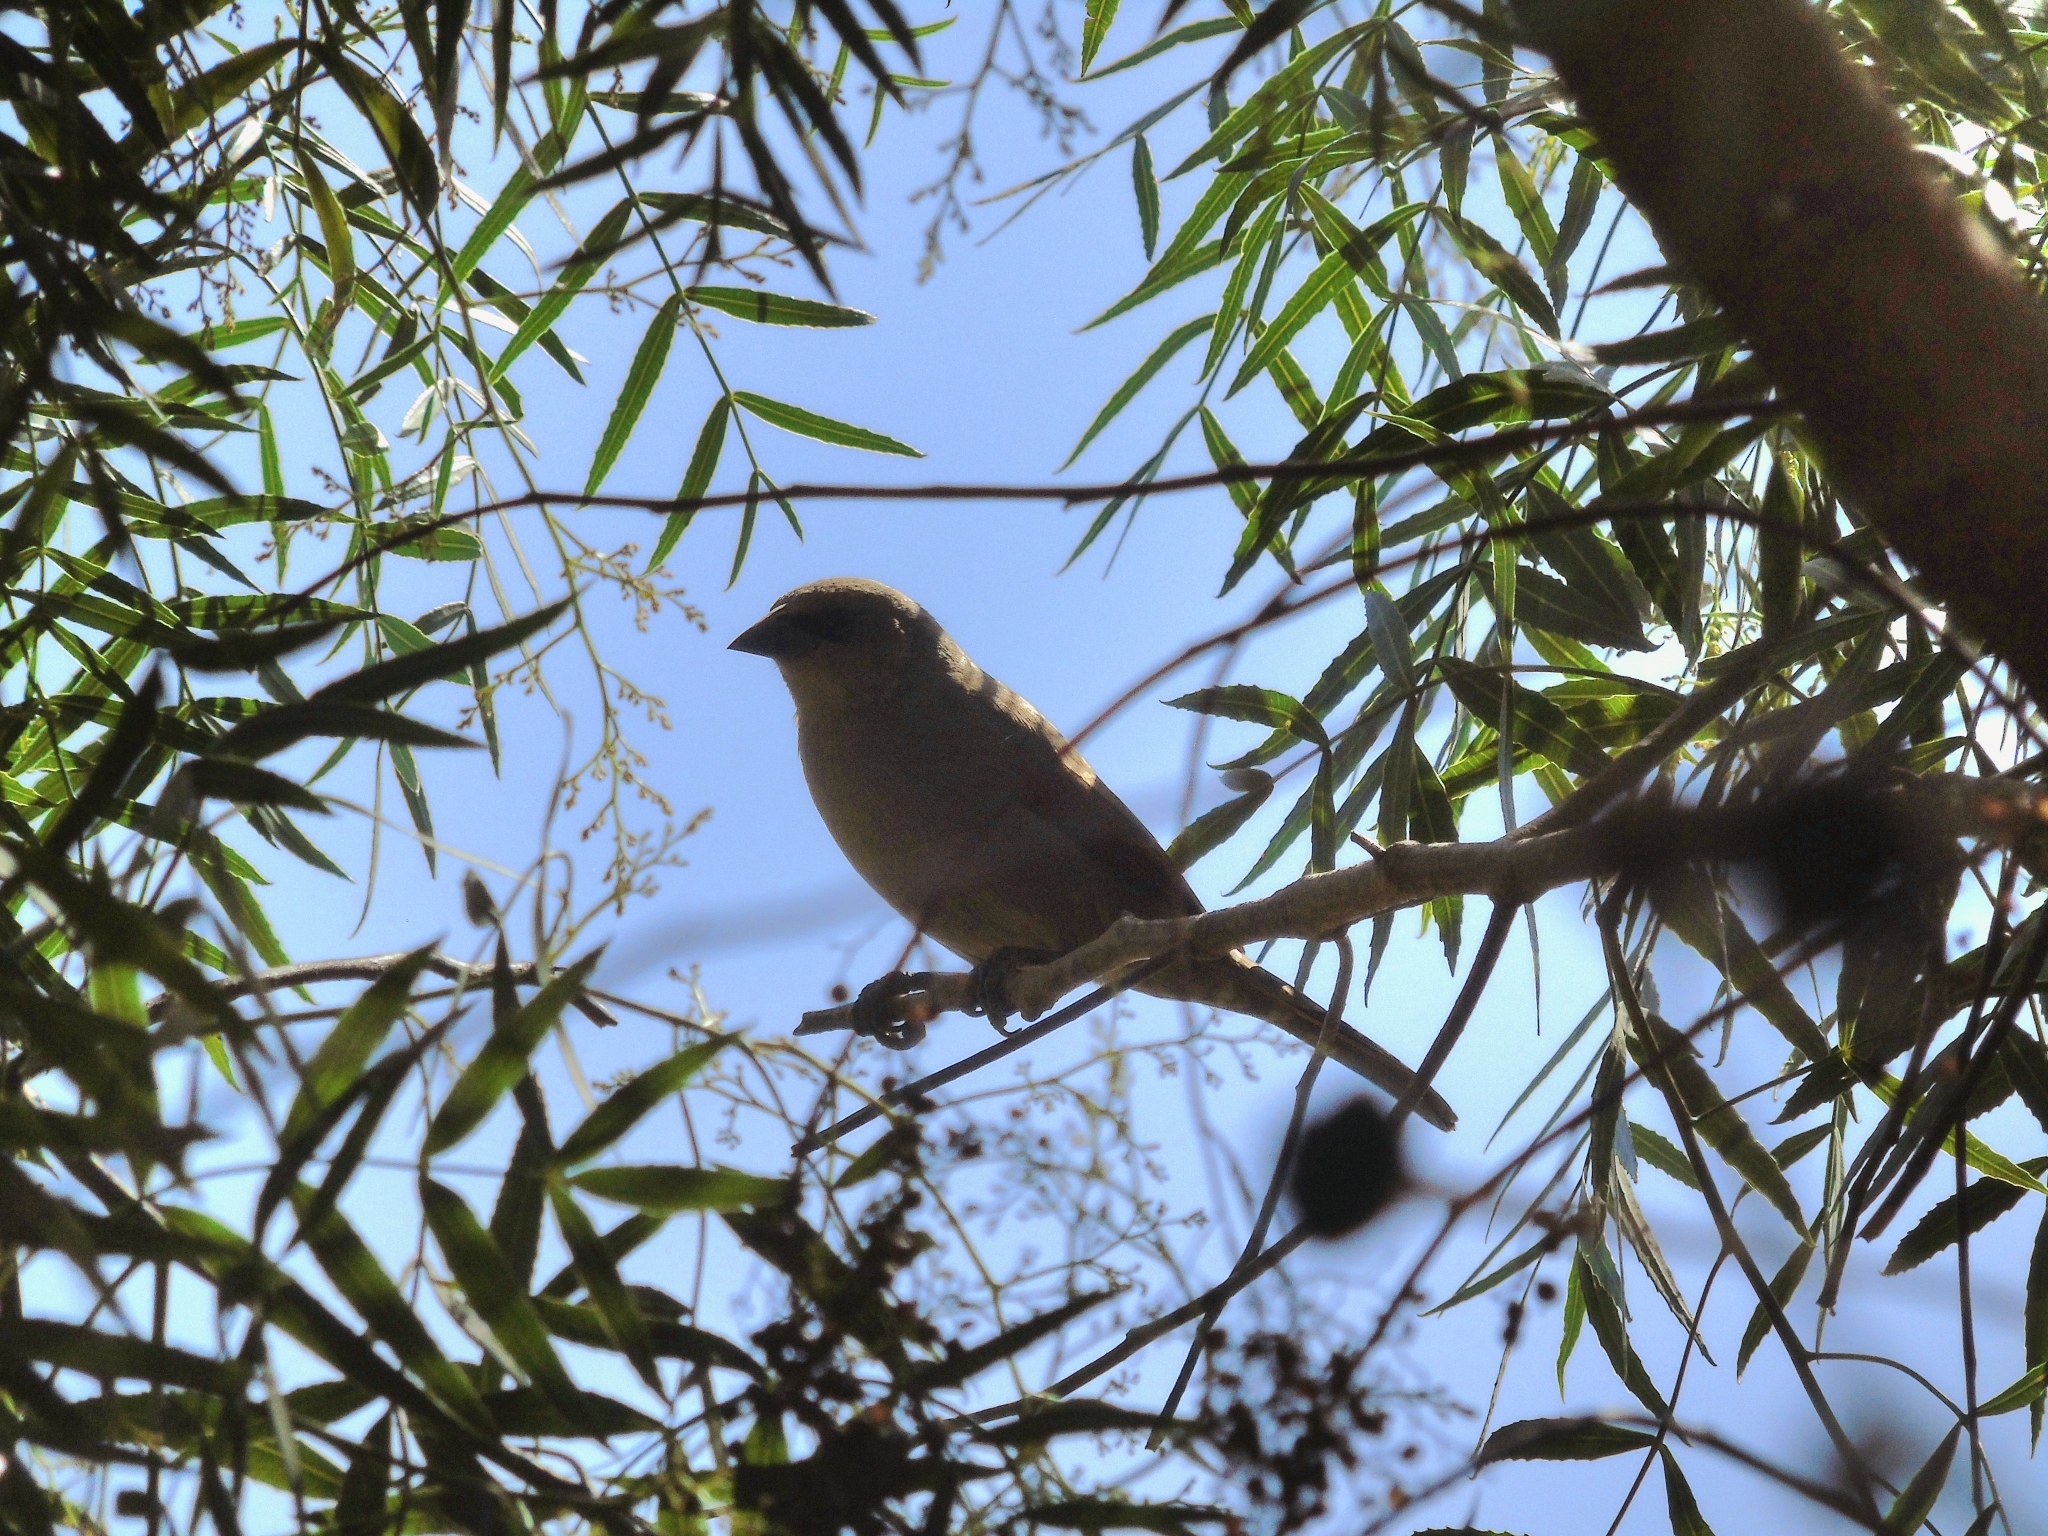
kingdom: Animalia
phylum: Chordata
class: Aves
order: Passeriformes
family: Icteridae
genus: Agelaioides
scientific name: Agelaioides badius
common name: Baywing
